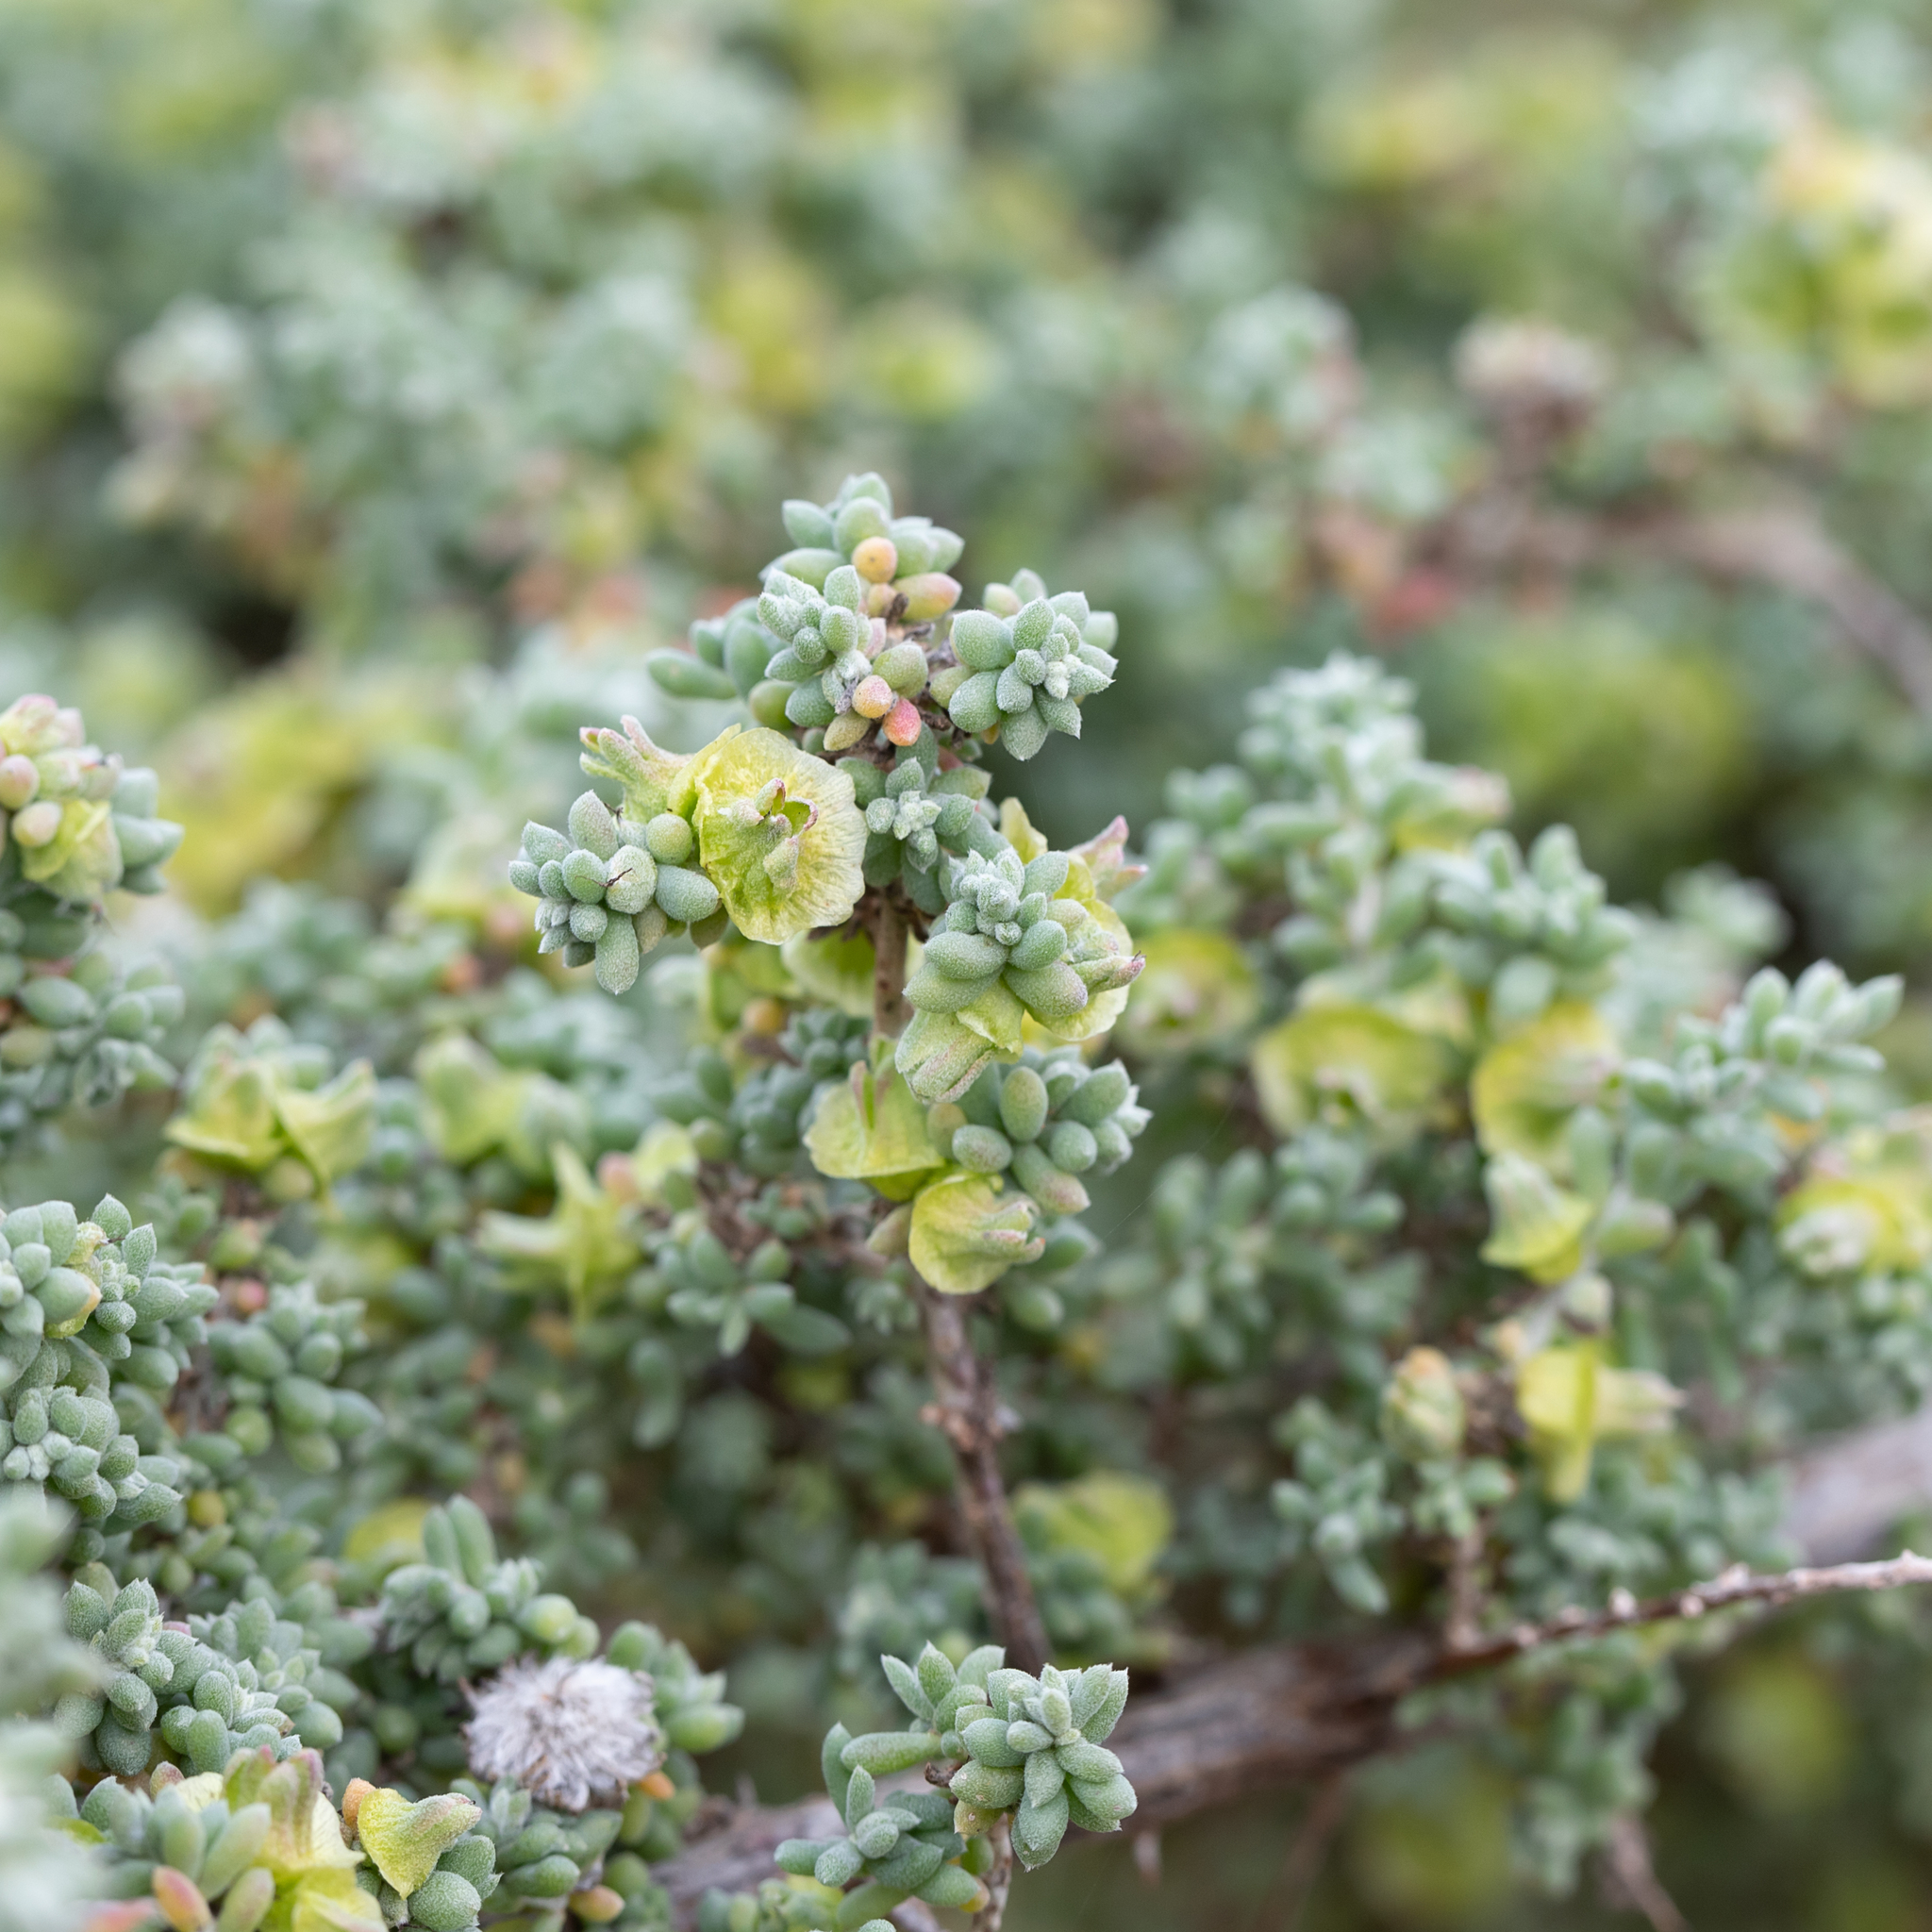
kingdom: Plantae
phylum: Tracheophyta
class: Magnoliopsida
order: Caryophyllales
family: Amaranthaceae
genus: Maireana
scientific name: Maireana pyramidata
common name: Sagobush
